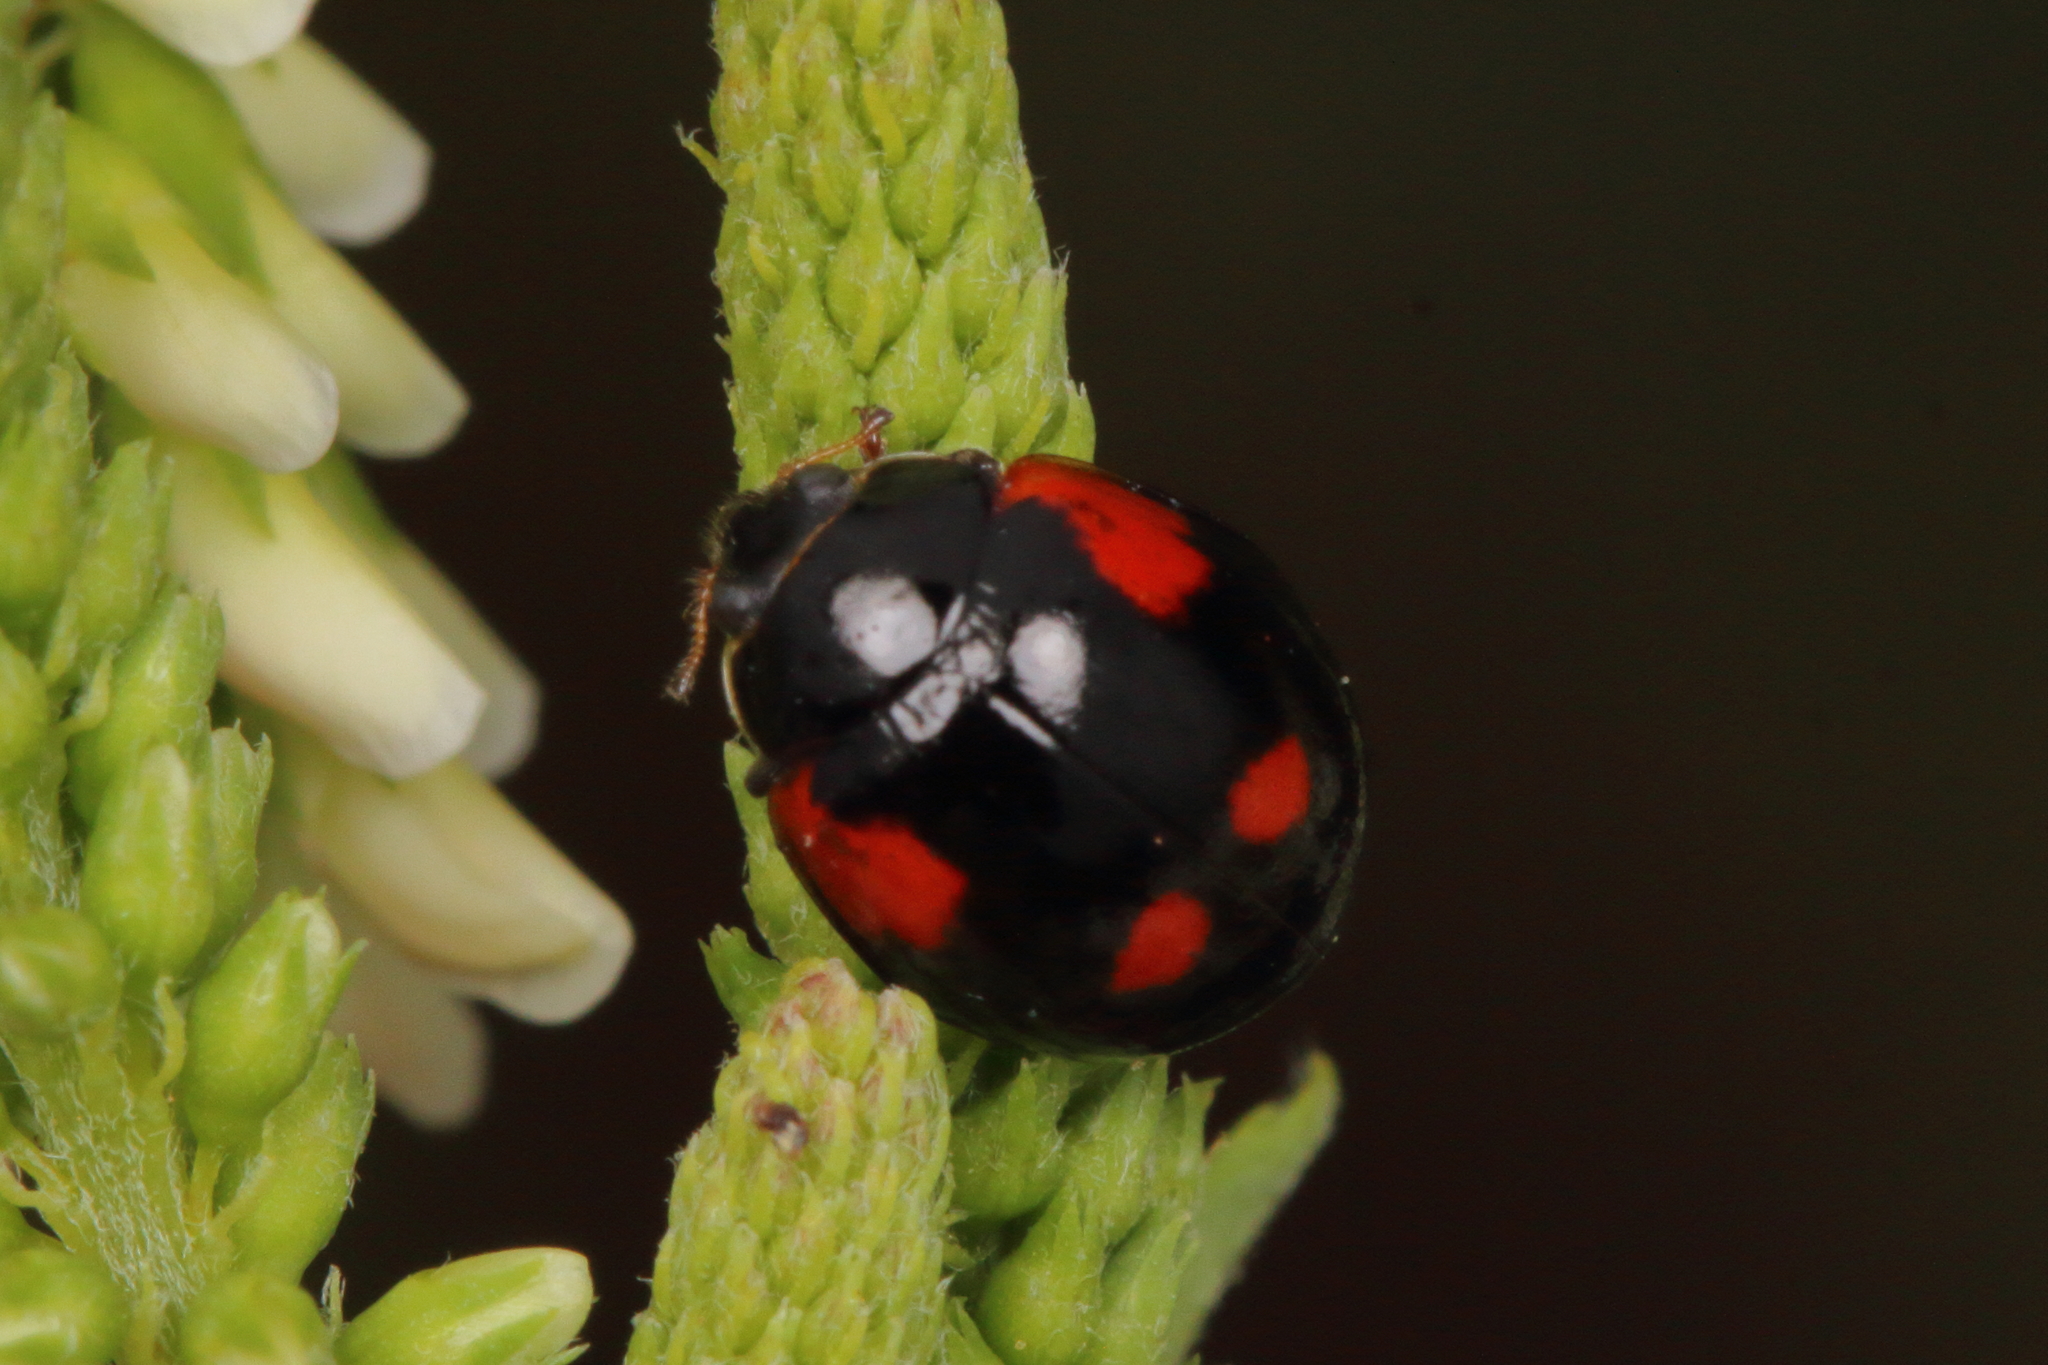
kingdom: Animalia
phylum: Arthropoda
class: Insecta
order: Coleoptera
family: Coccinellidae
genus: Harmonia
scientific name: Harmonia axyridis
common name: Harlequin ladybird
